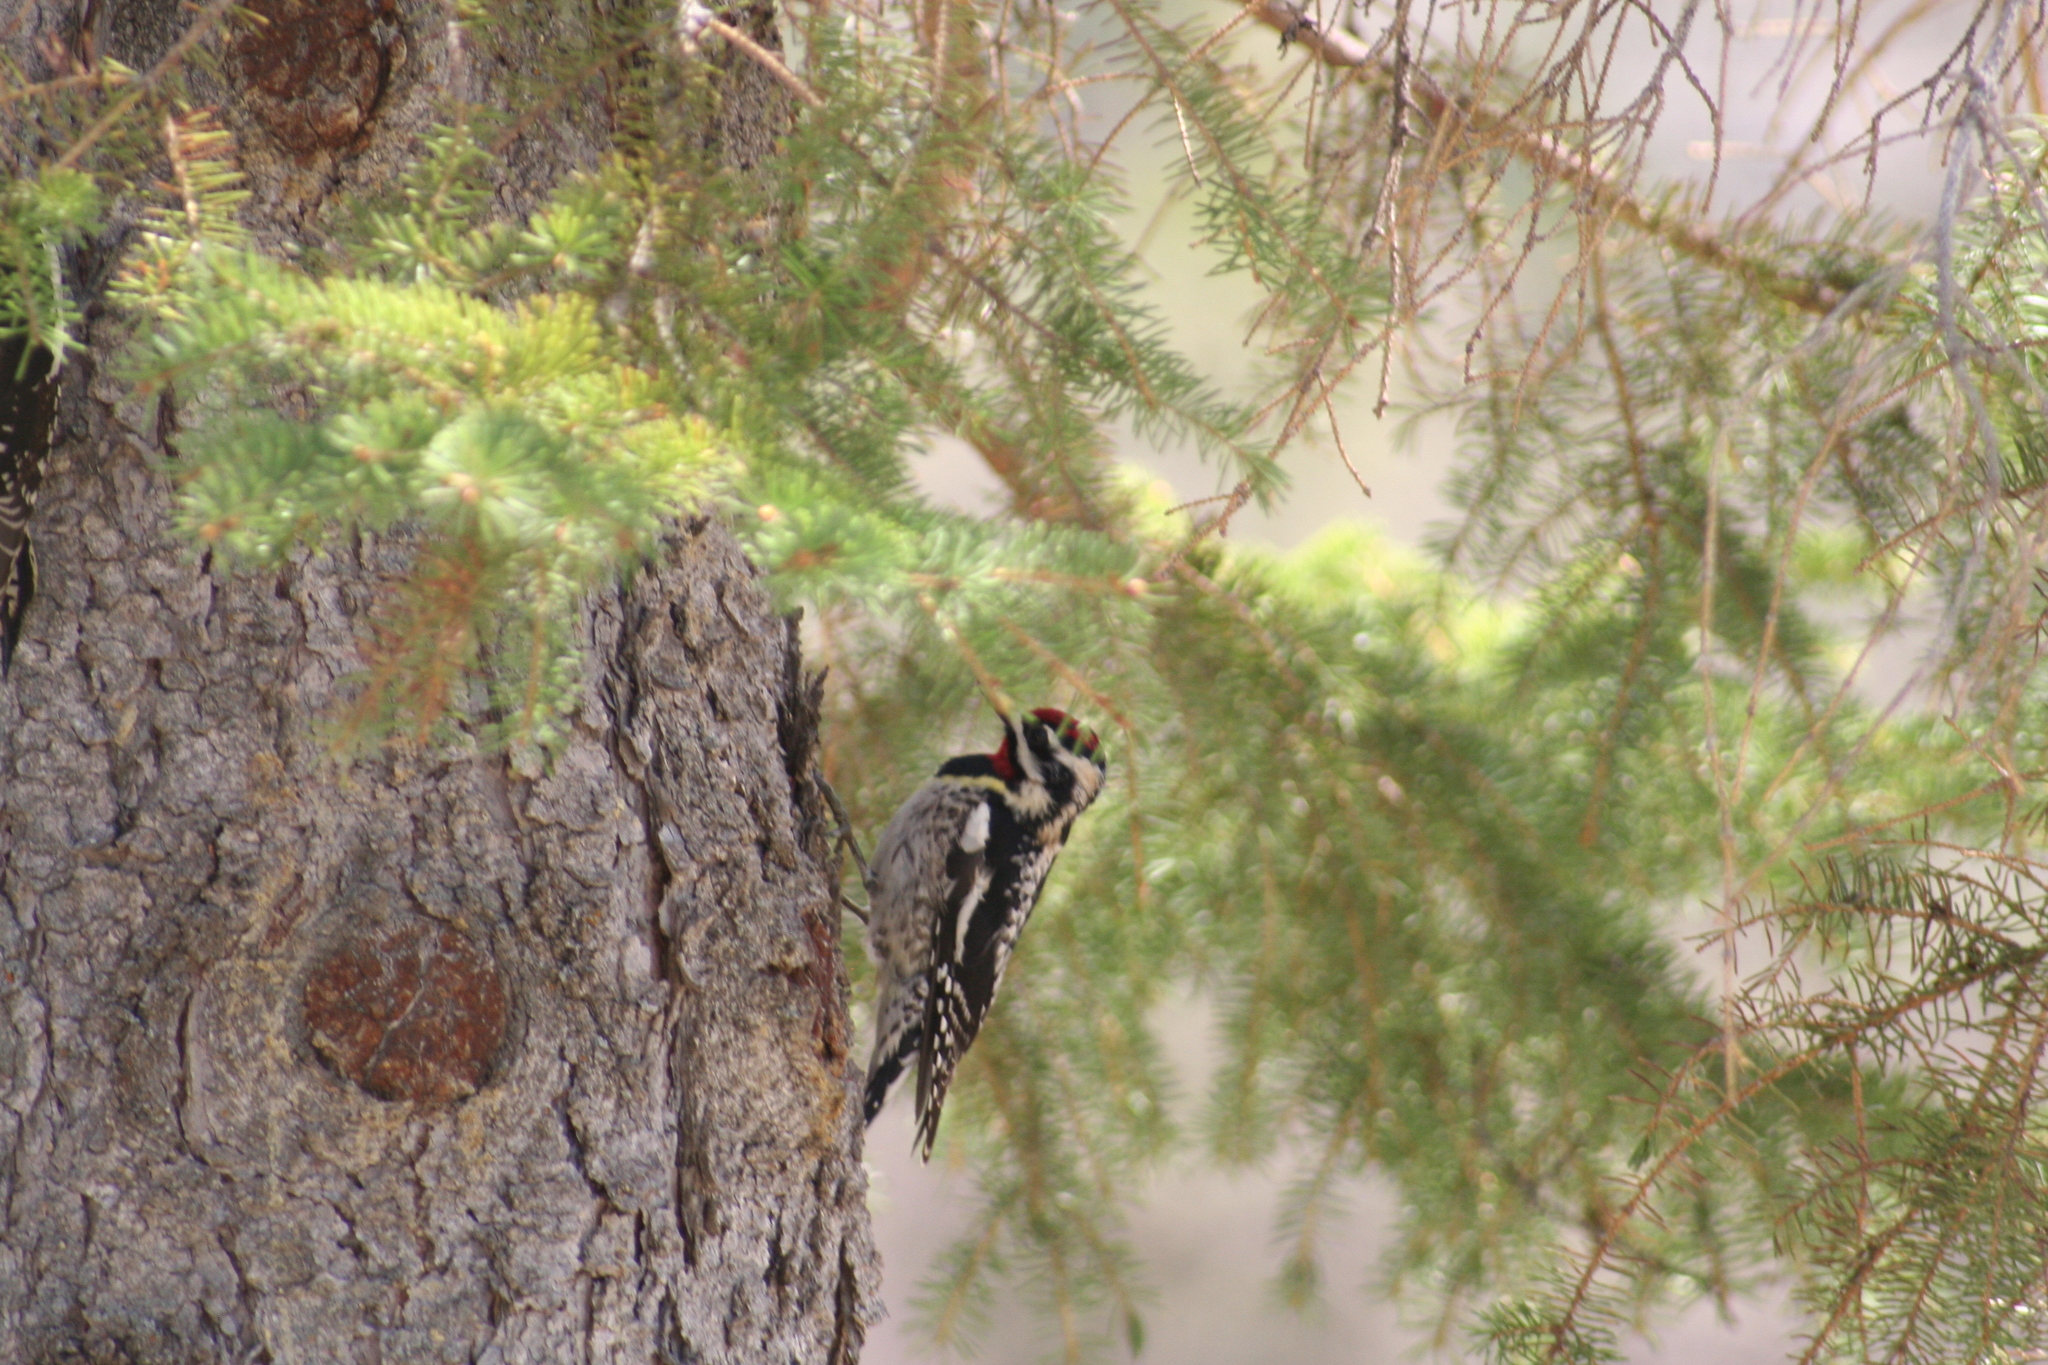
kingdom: Animalia
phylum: Chordata
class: Aves
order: Piciformes
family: Picidae
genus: Sphyrapicus
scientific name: Sphyrapicus varius
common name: Yellow-bellied sapsucker
